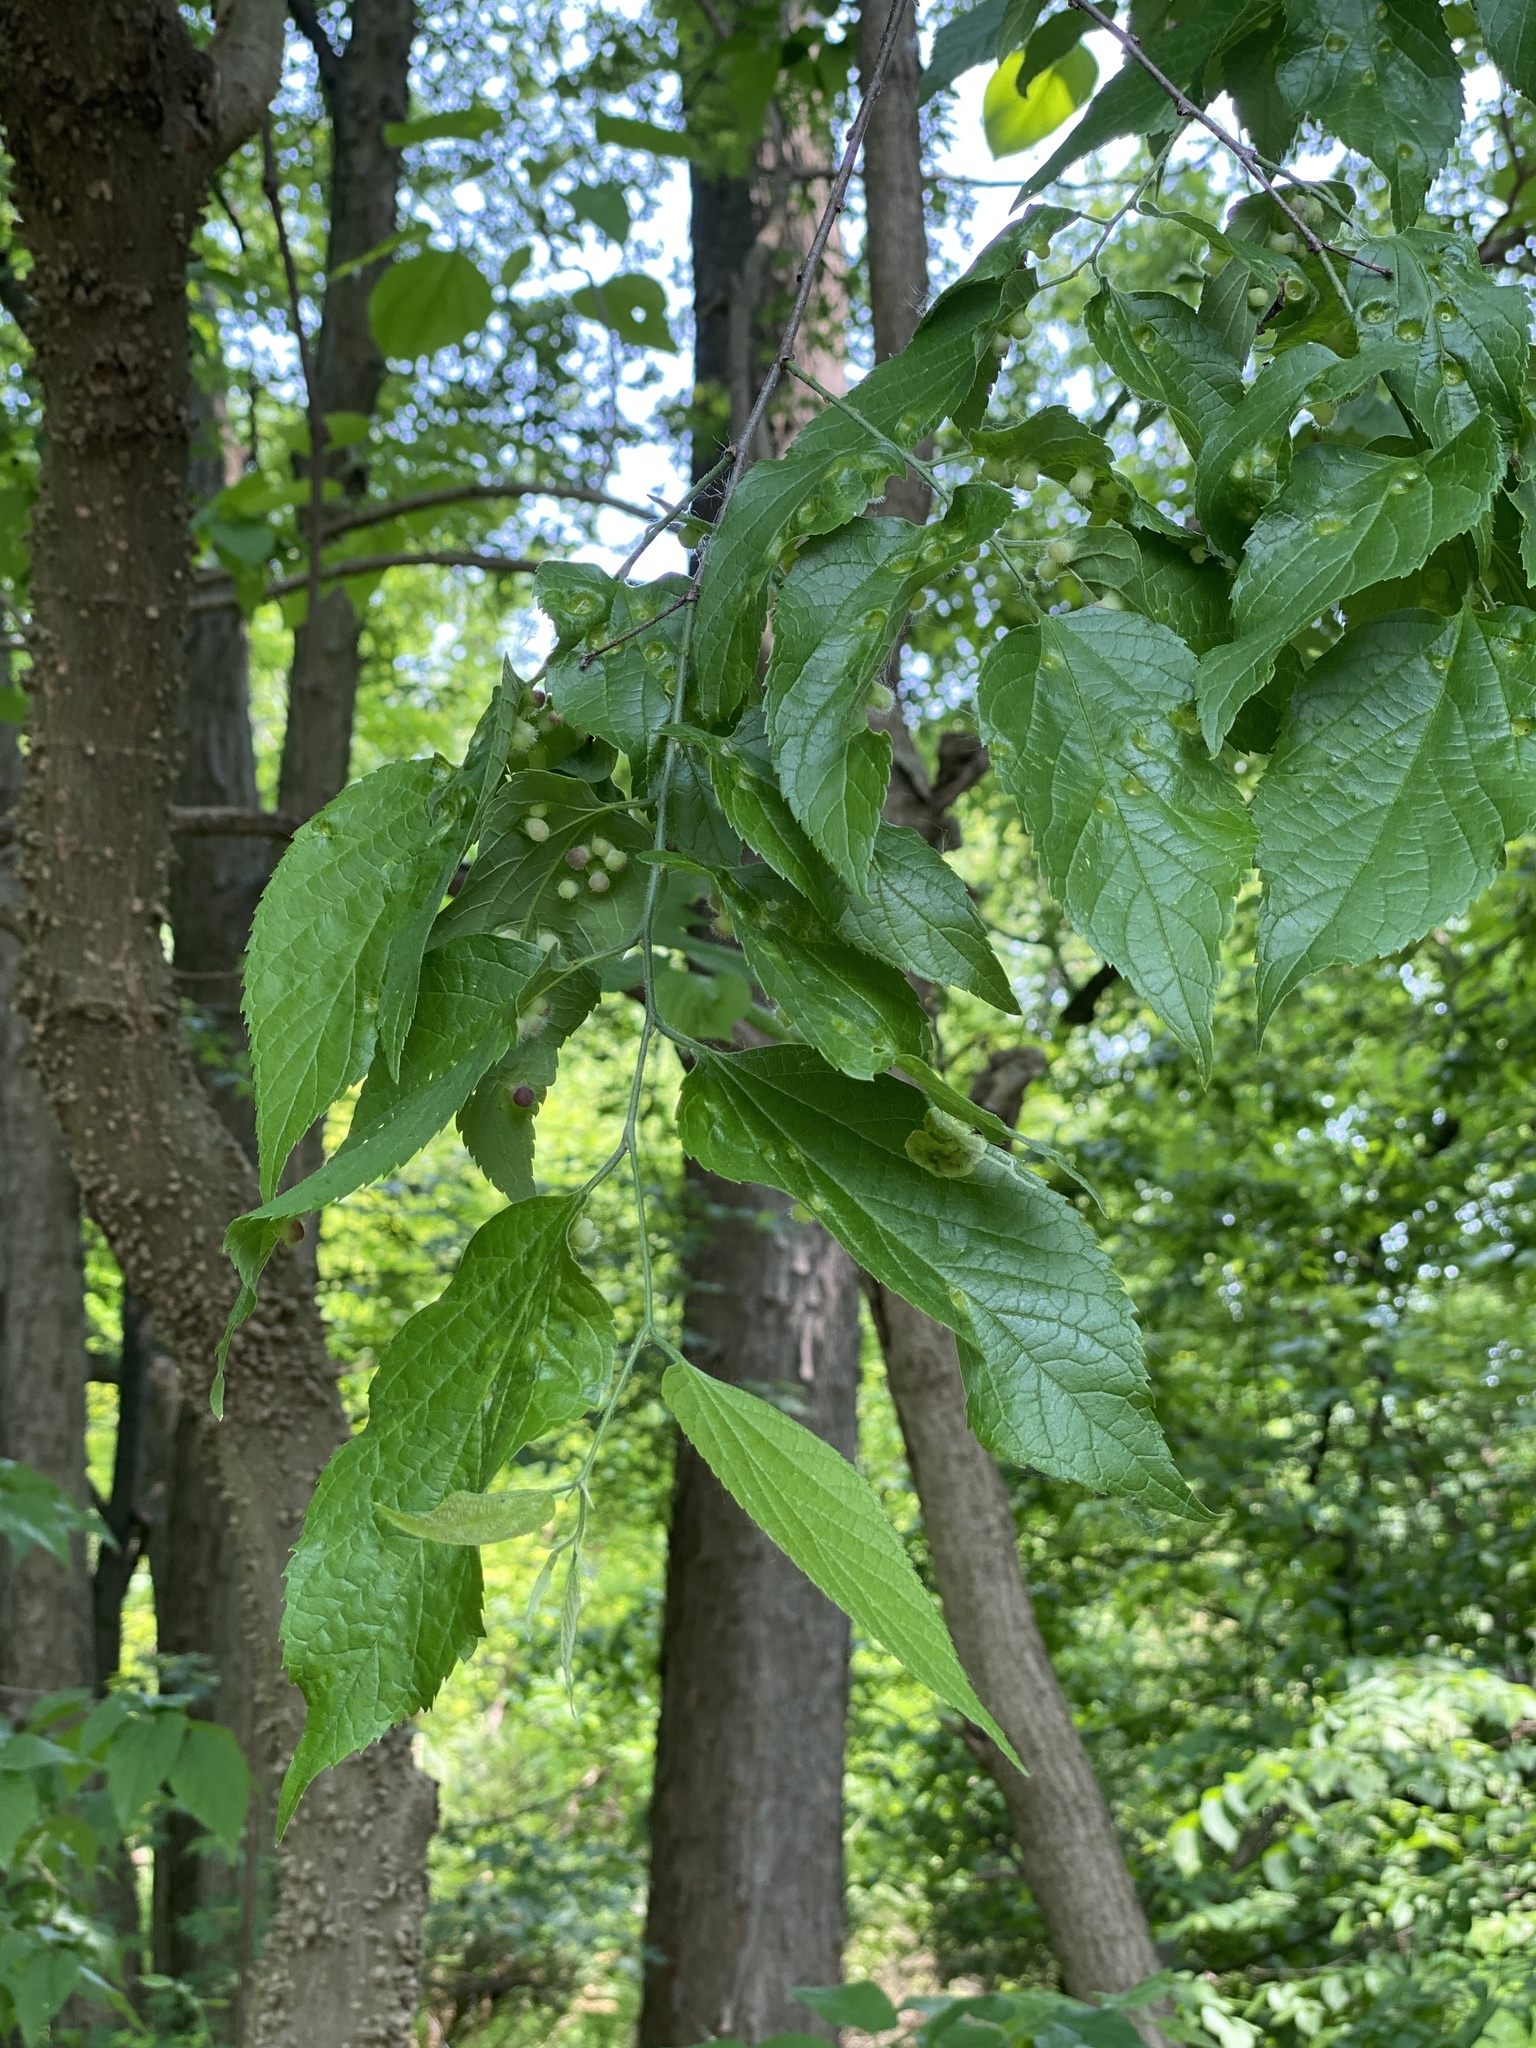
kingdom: Plantae
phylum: Tracheophyta
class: Magnoliopsida
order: Rosales
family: Cannabaceae
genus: Celtis
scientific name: Celtis occidentalis
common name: Common hackberry
